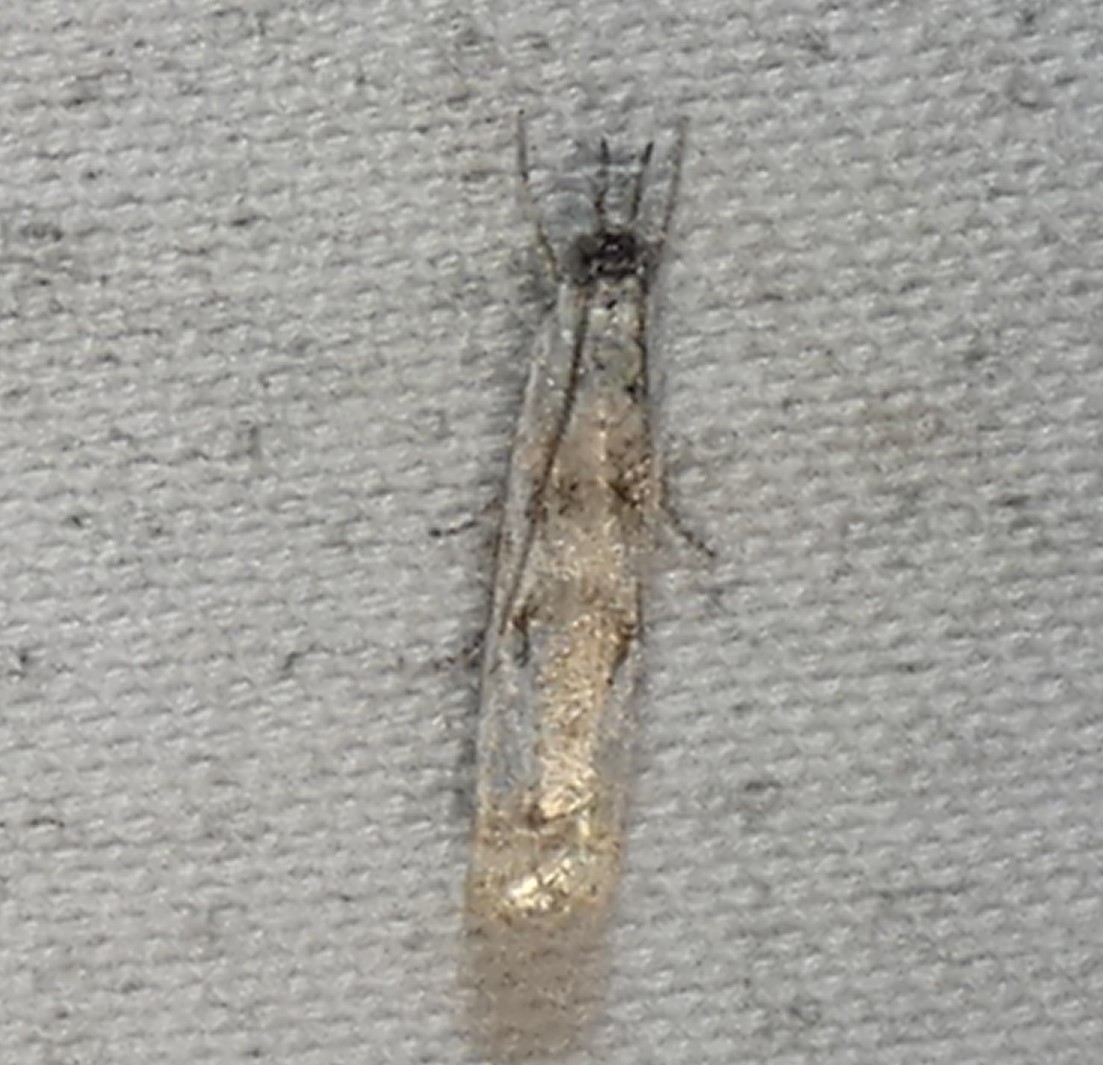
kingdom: Animalia
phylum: Arthropoda
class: Insecta
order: Lepidoptera
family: Crambidae
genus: Microcrambus
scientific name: Microcrambus immunellus
